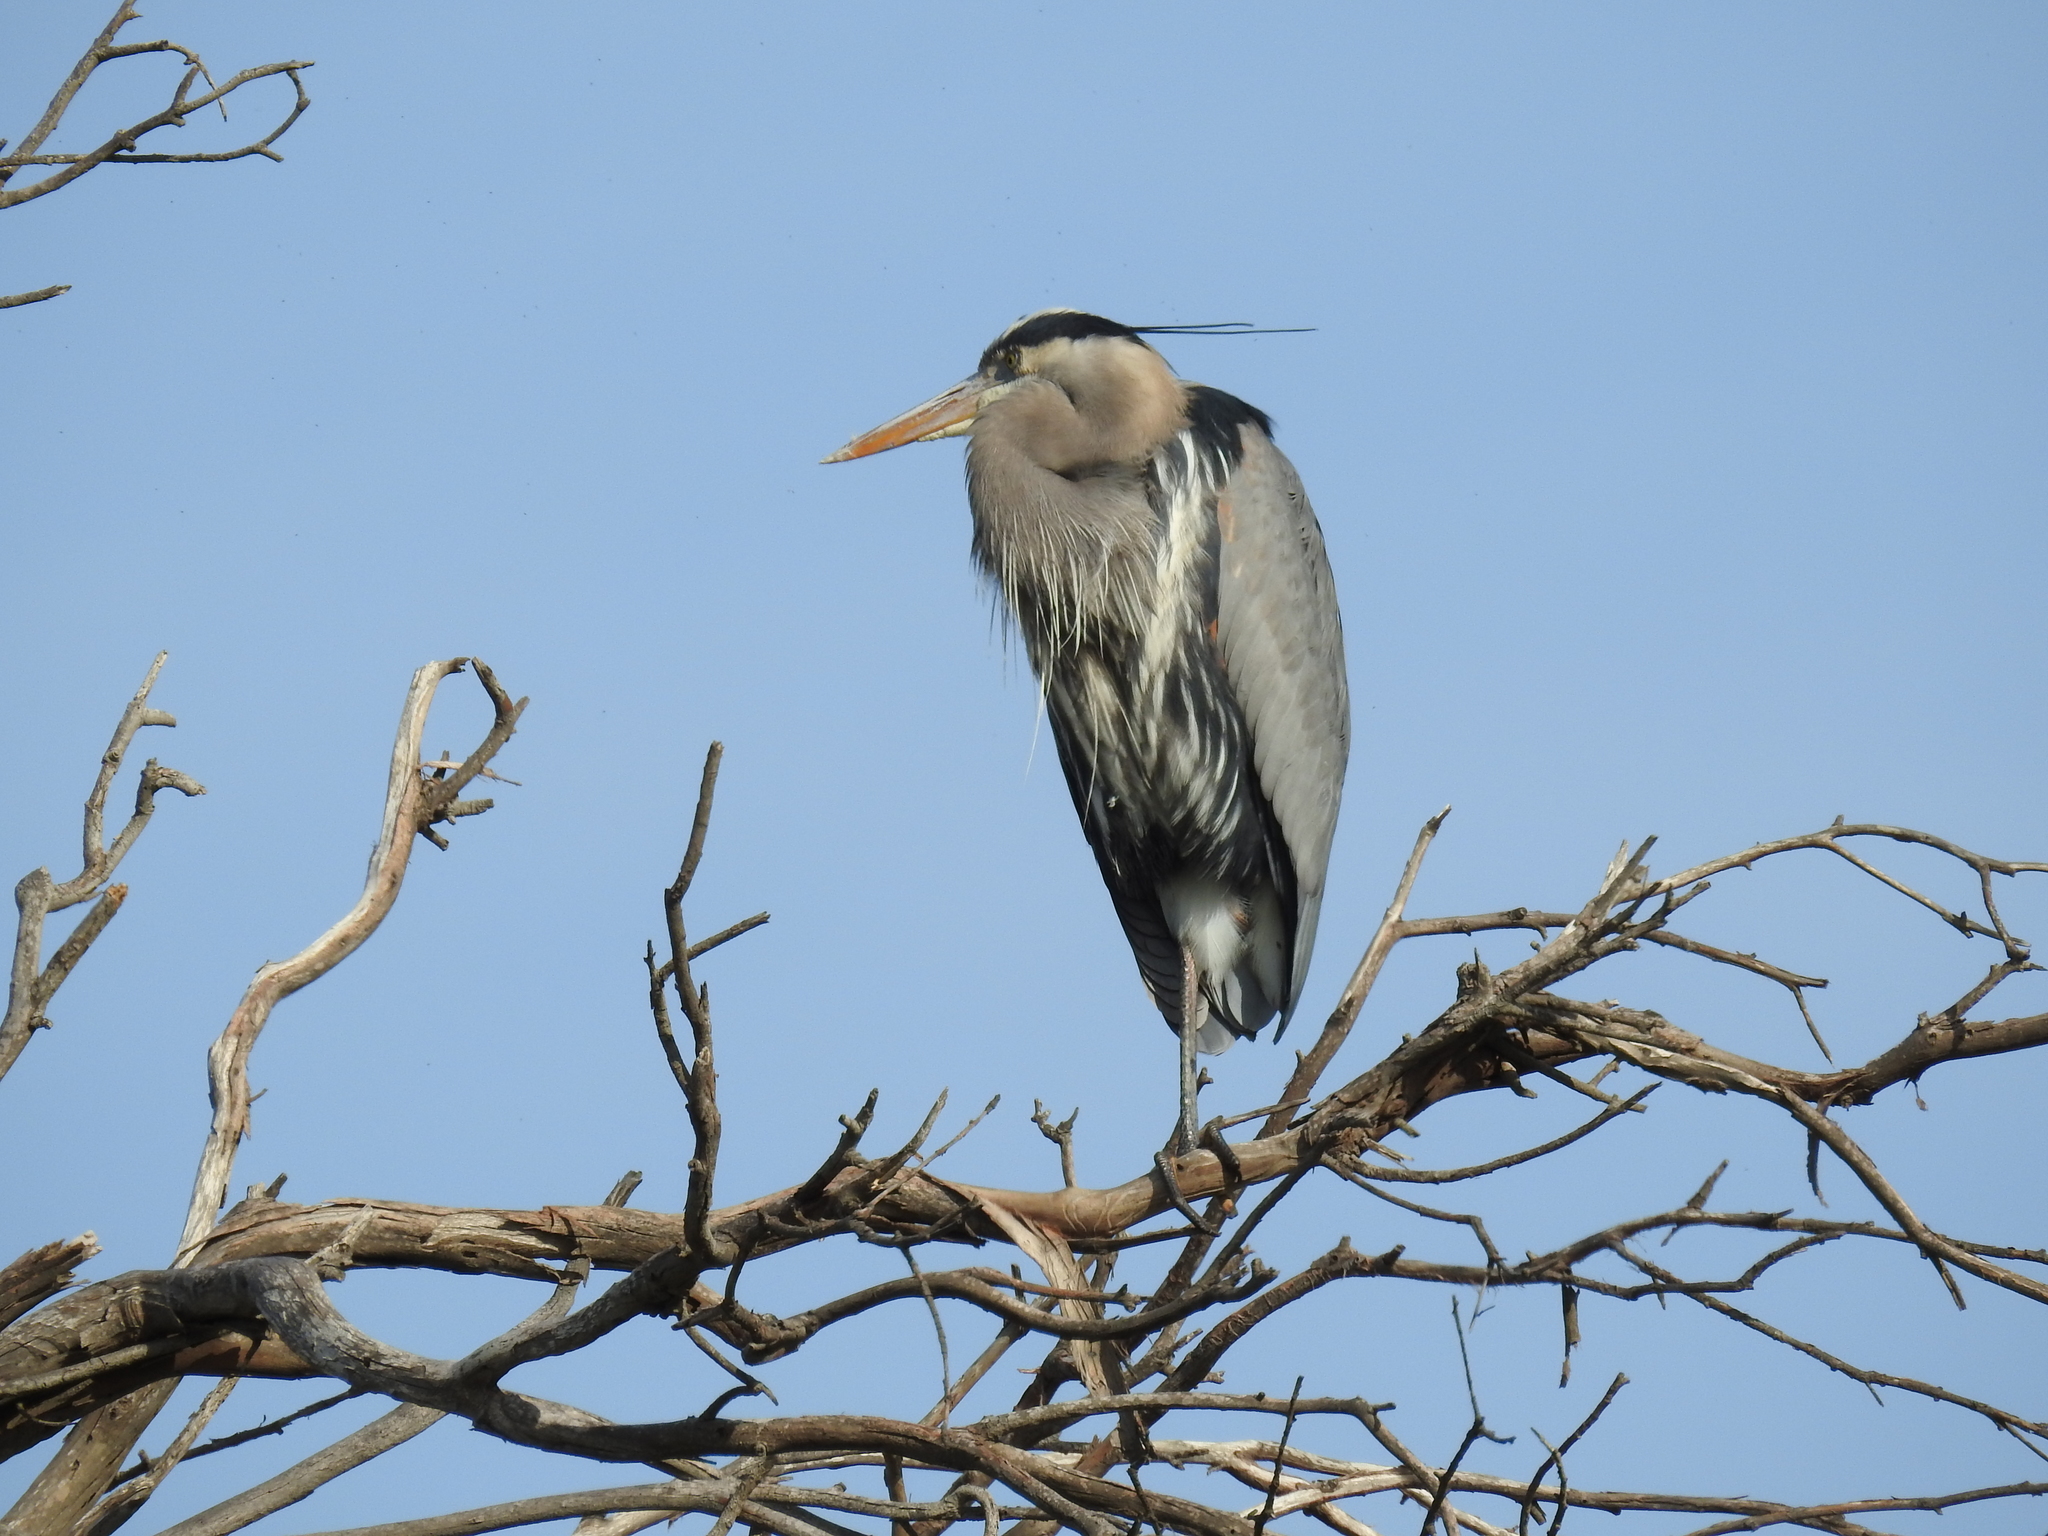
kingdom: Animalia
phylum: Chordata
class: Aves
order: Pelecaniformes
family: Ardeidae
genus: Ardea
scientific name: Ardea herodias
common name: Great blue heron
